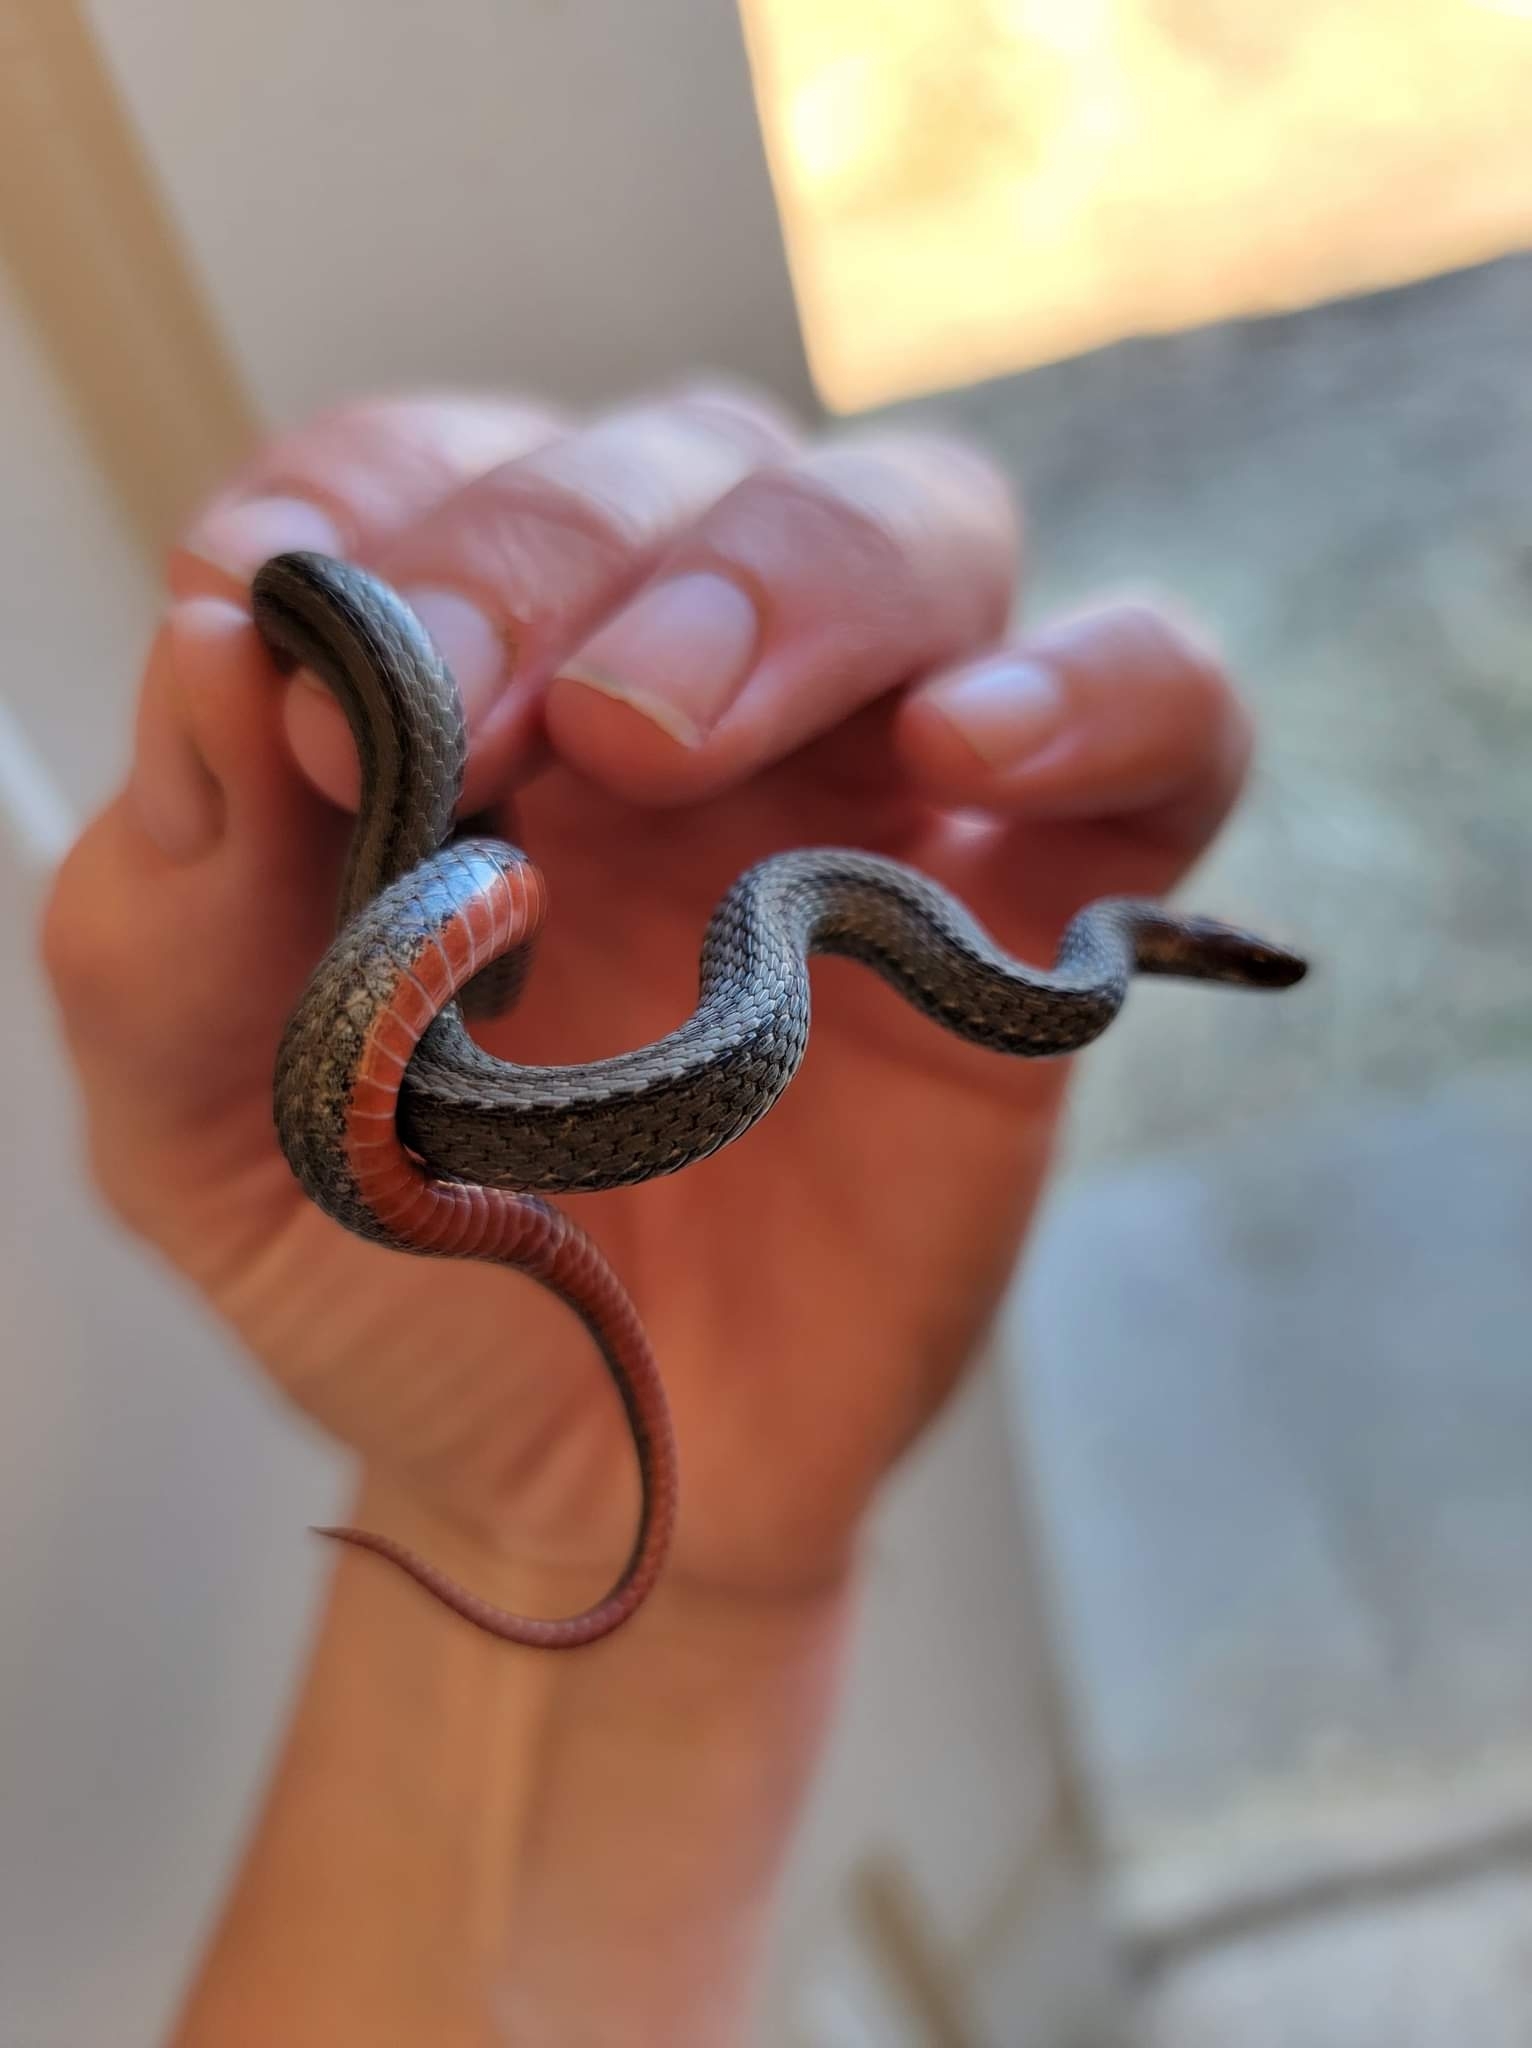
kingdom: Animalia
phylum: Chordata
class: Squamata
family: Colubridae
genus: Storeria
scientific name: Storeria occipitomaculata
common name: Redbelly snake
